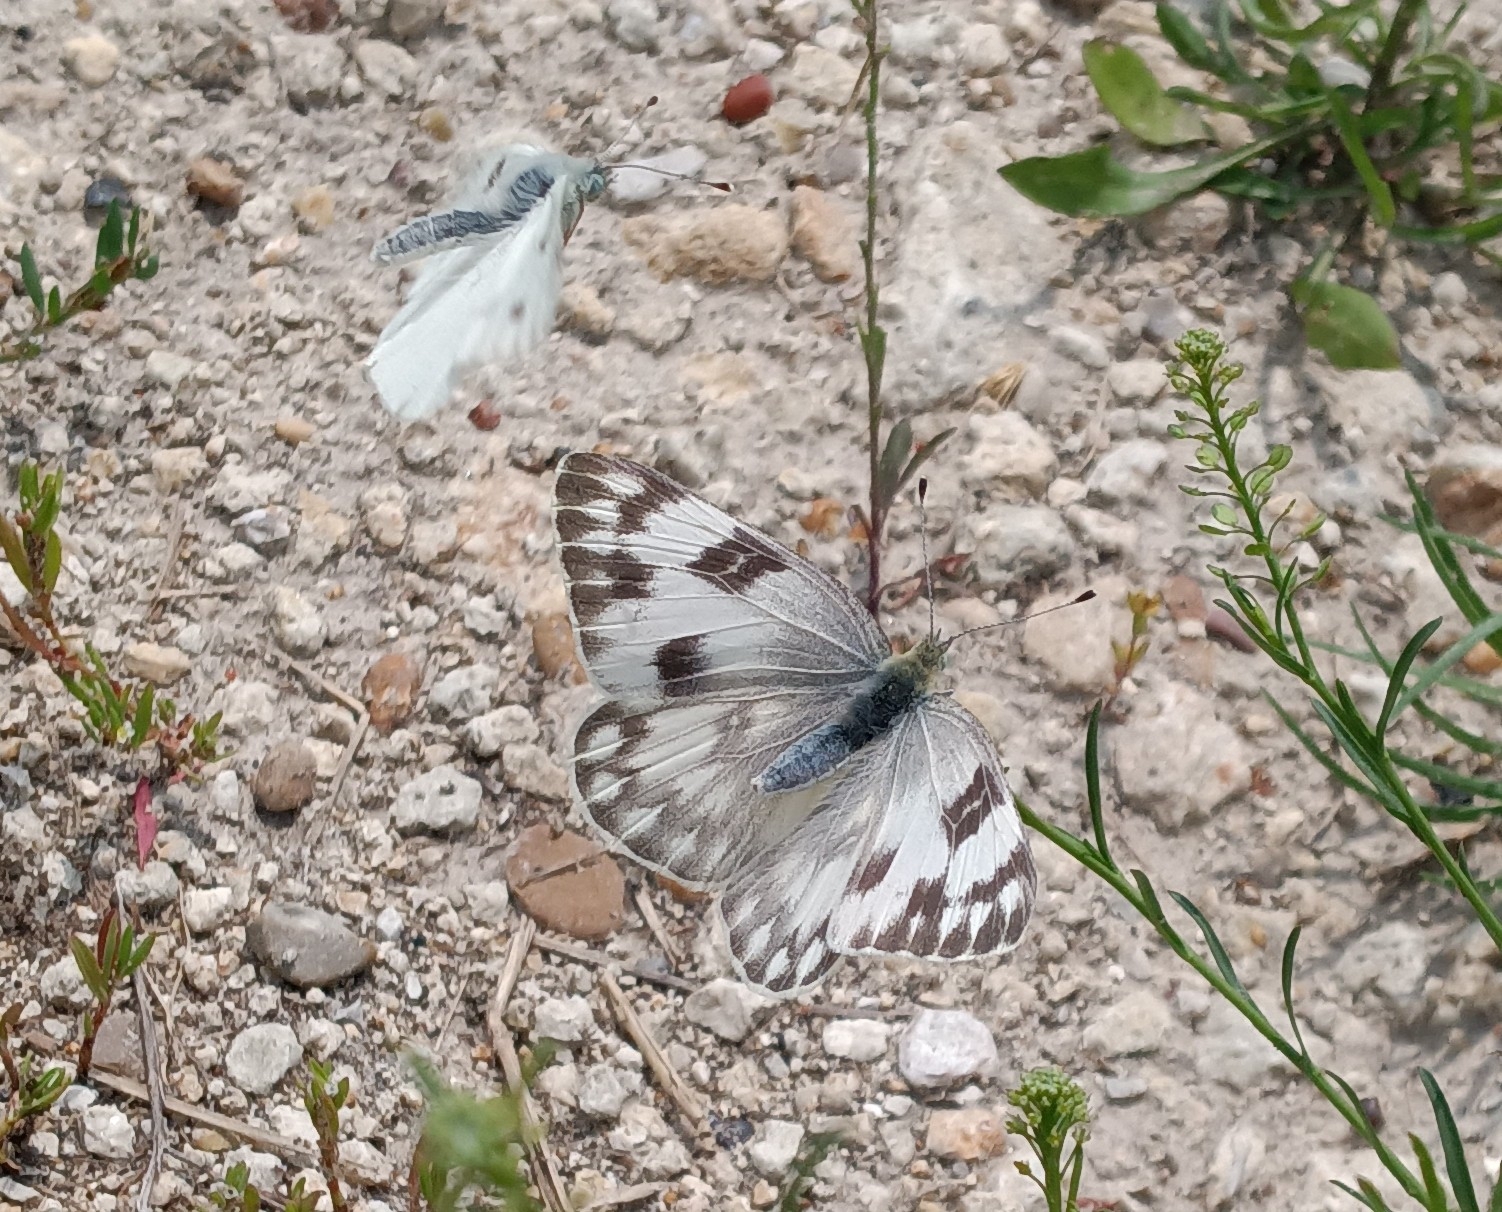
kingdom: Animalia
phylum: Arthropoda
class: Insecta
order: Lepidoptera
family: Pieridae
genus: Pontia
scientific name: Pontia protodice
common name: Checkered white
